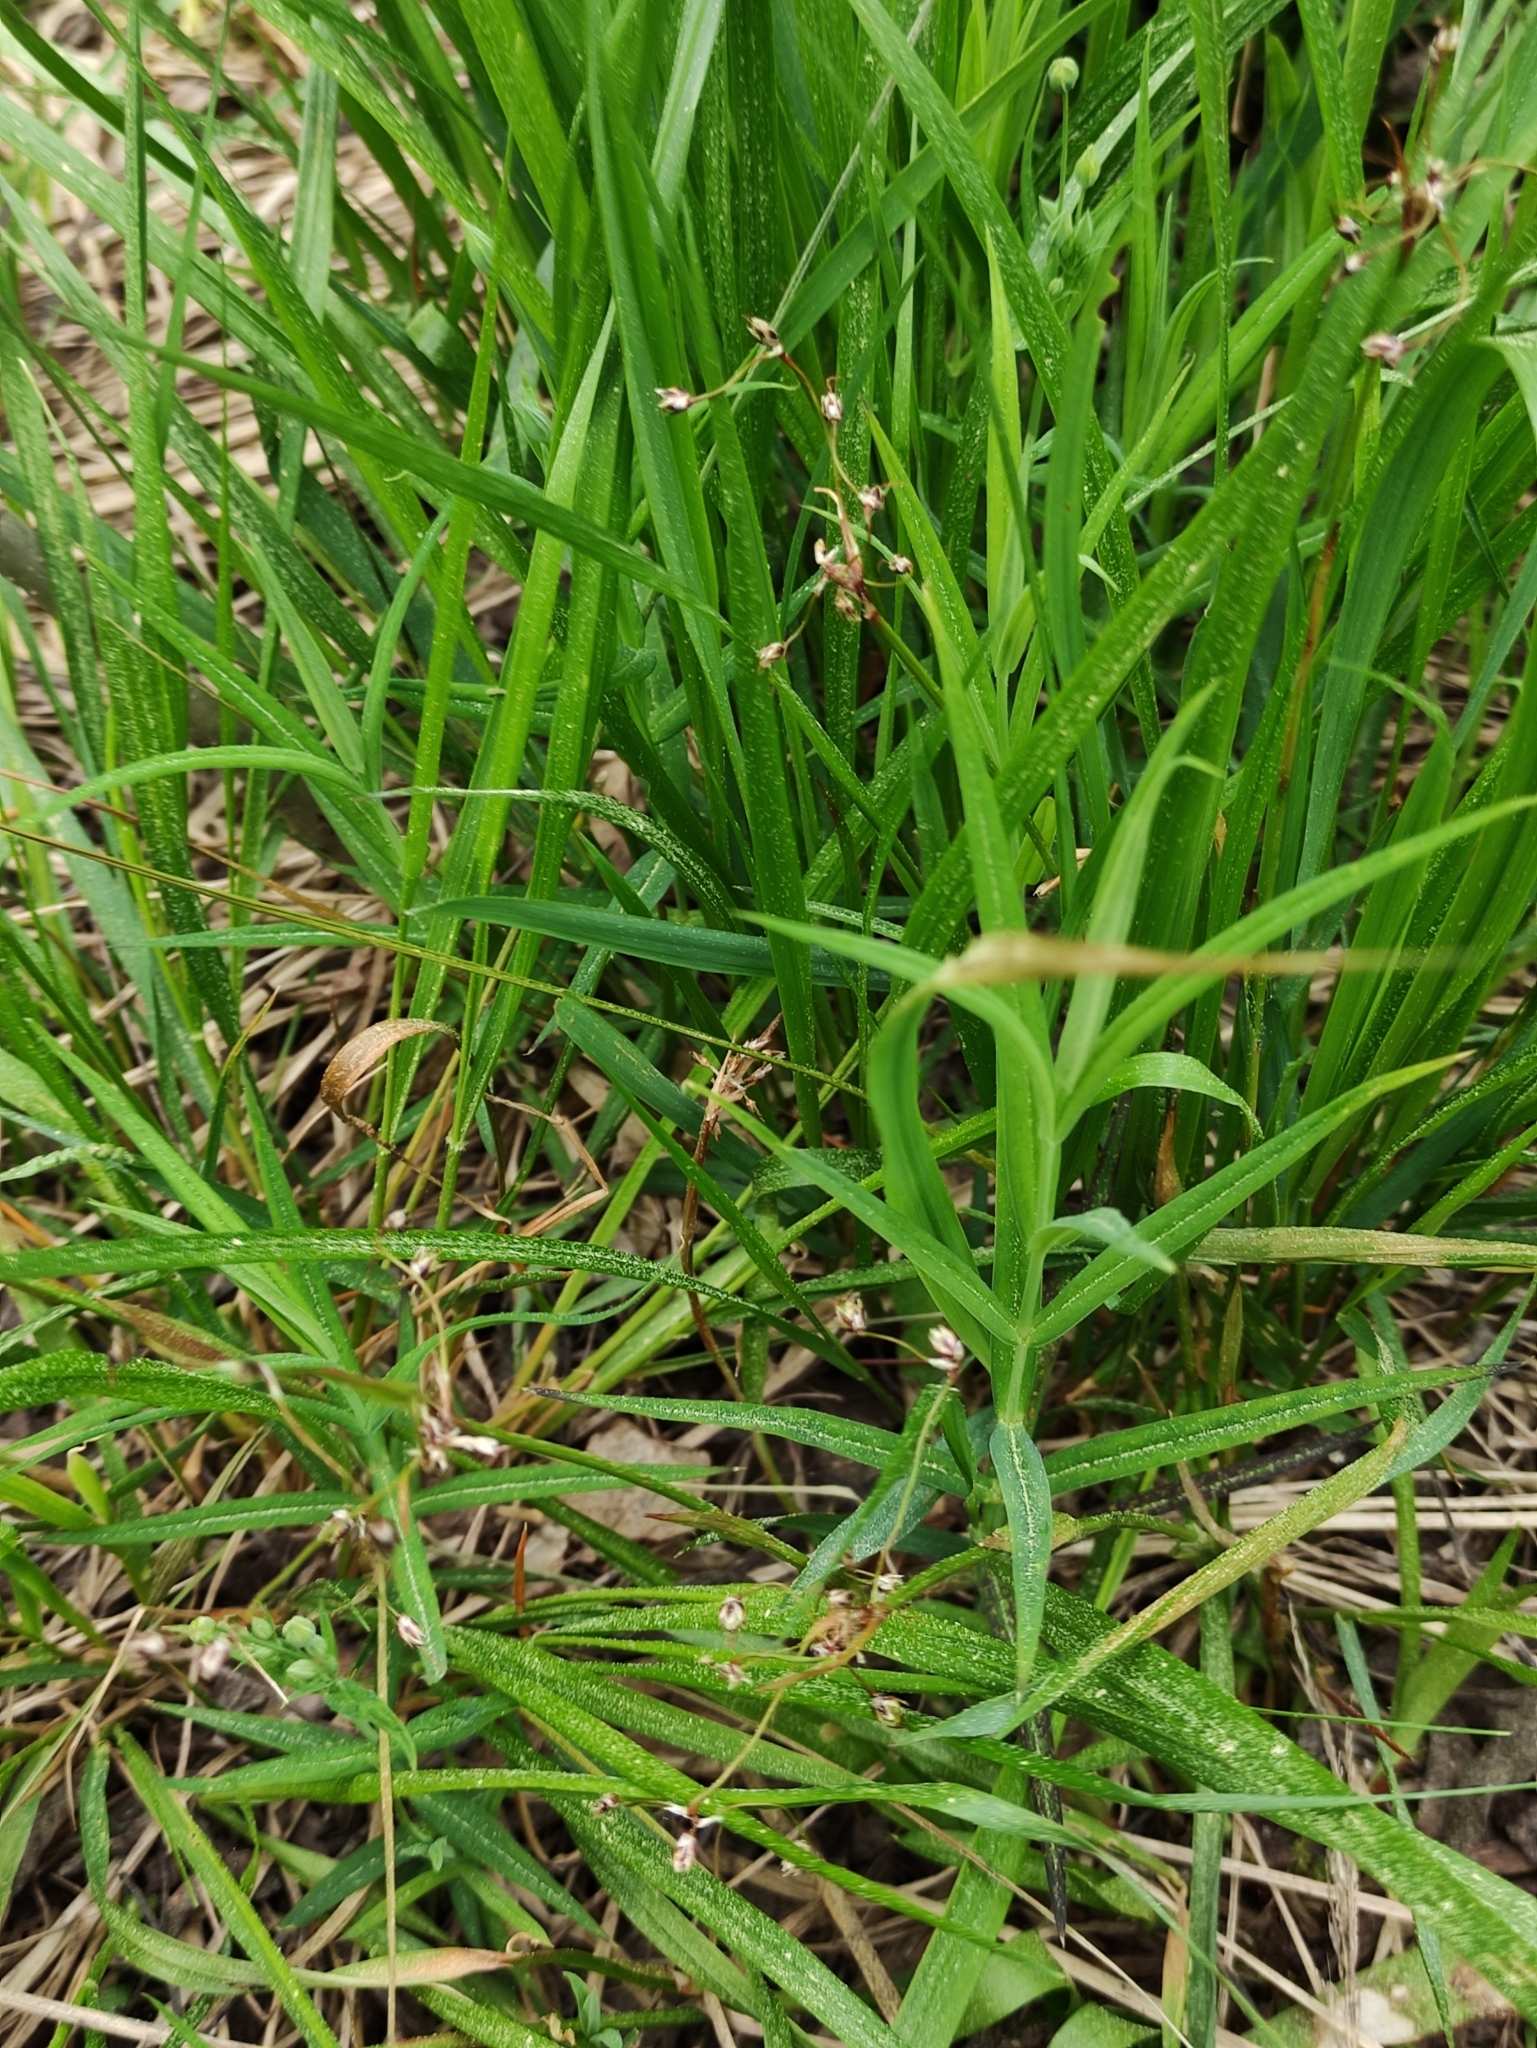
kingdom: Plantae
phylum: Tracheophyta
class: Liliopsida
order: Poales
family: Juncaceae
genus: Luzula
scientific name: Luzula pilosa
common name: Hairy wood-rush
